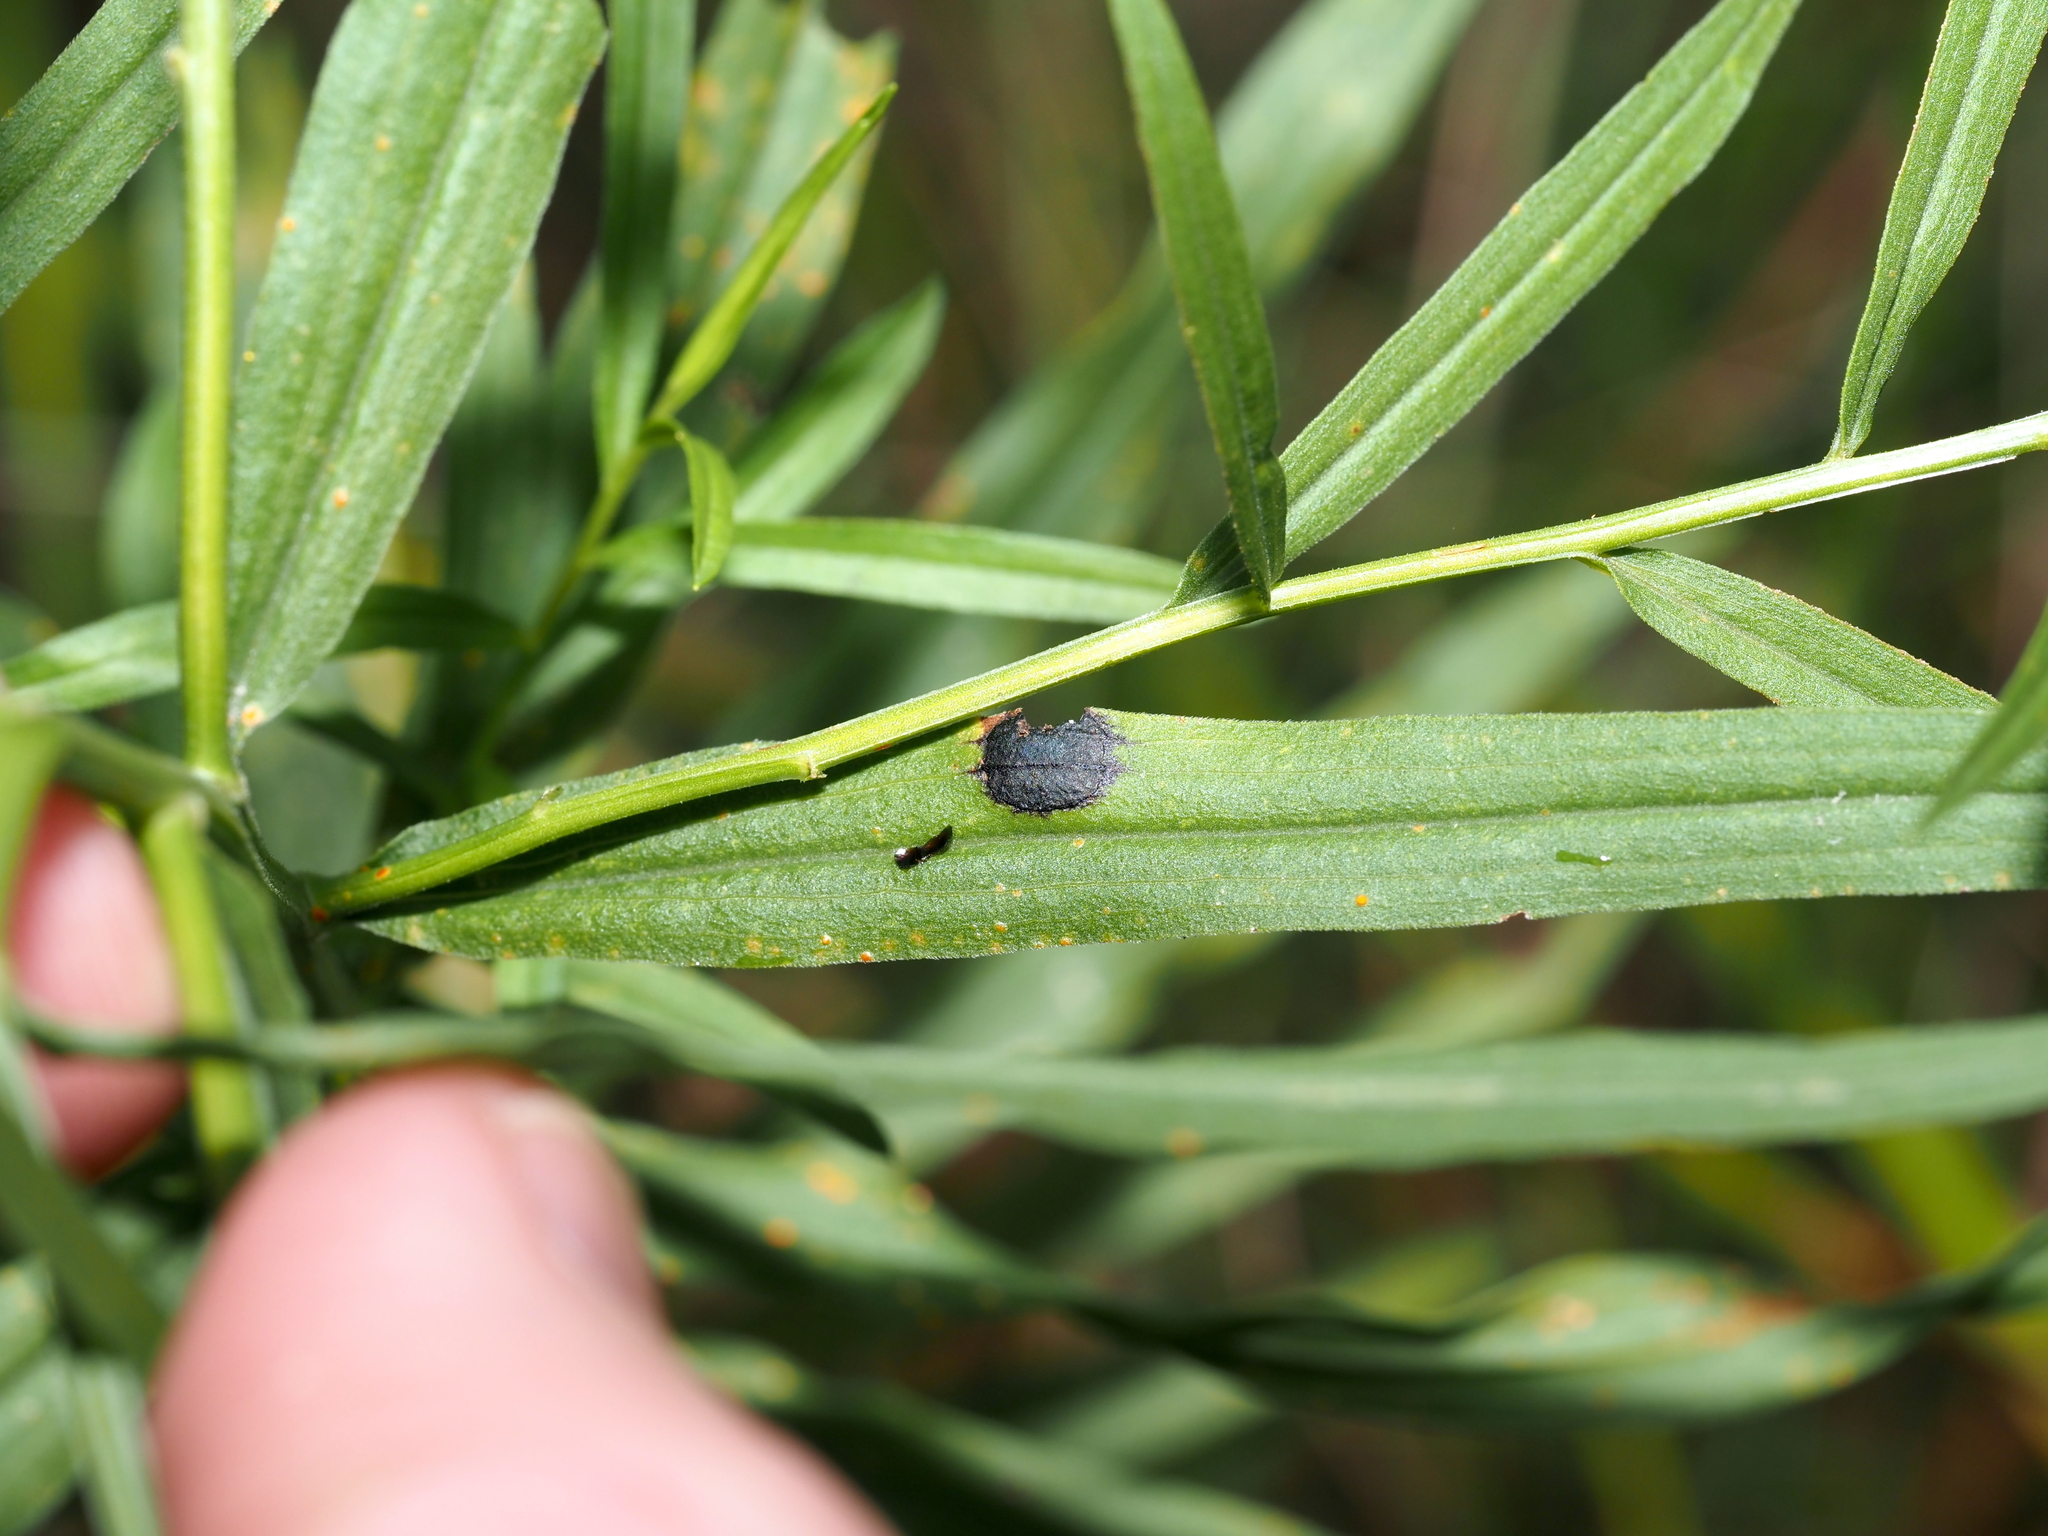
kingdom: Animalia
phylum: Arthropoda
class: Insecta
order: Diptera
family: Cecidomyiidae
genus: Asteromyia
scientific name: Asteromyia euthamiae
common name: Euthamia leaf gall midge
